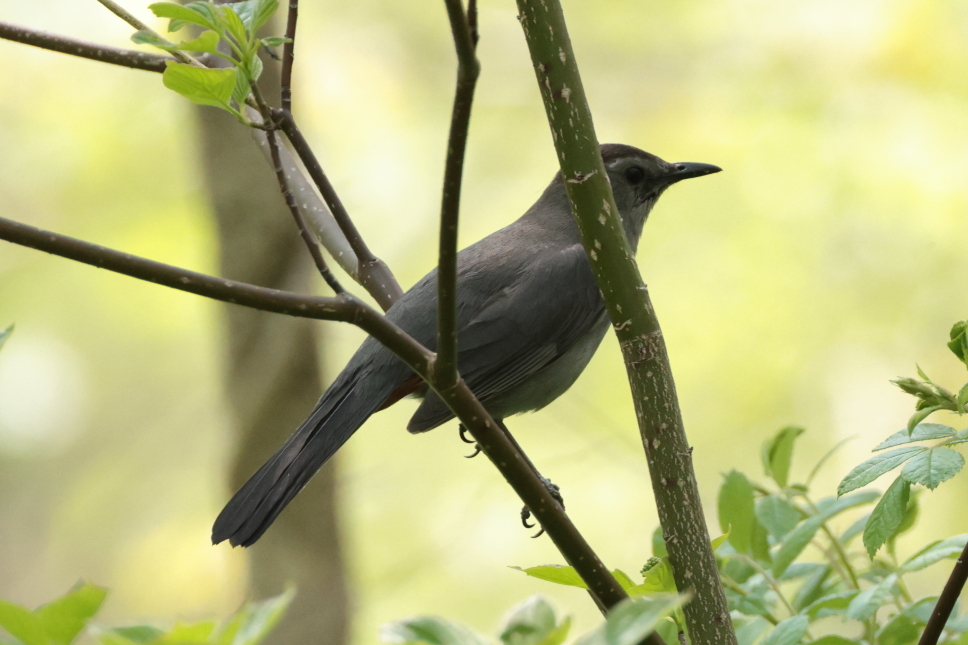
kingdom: Animalia
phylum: Chordata
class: Aves
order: Passeriformes
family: Mimidae
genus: Dumetella
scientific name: Dumetella carolinensis
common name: Gray catbird
